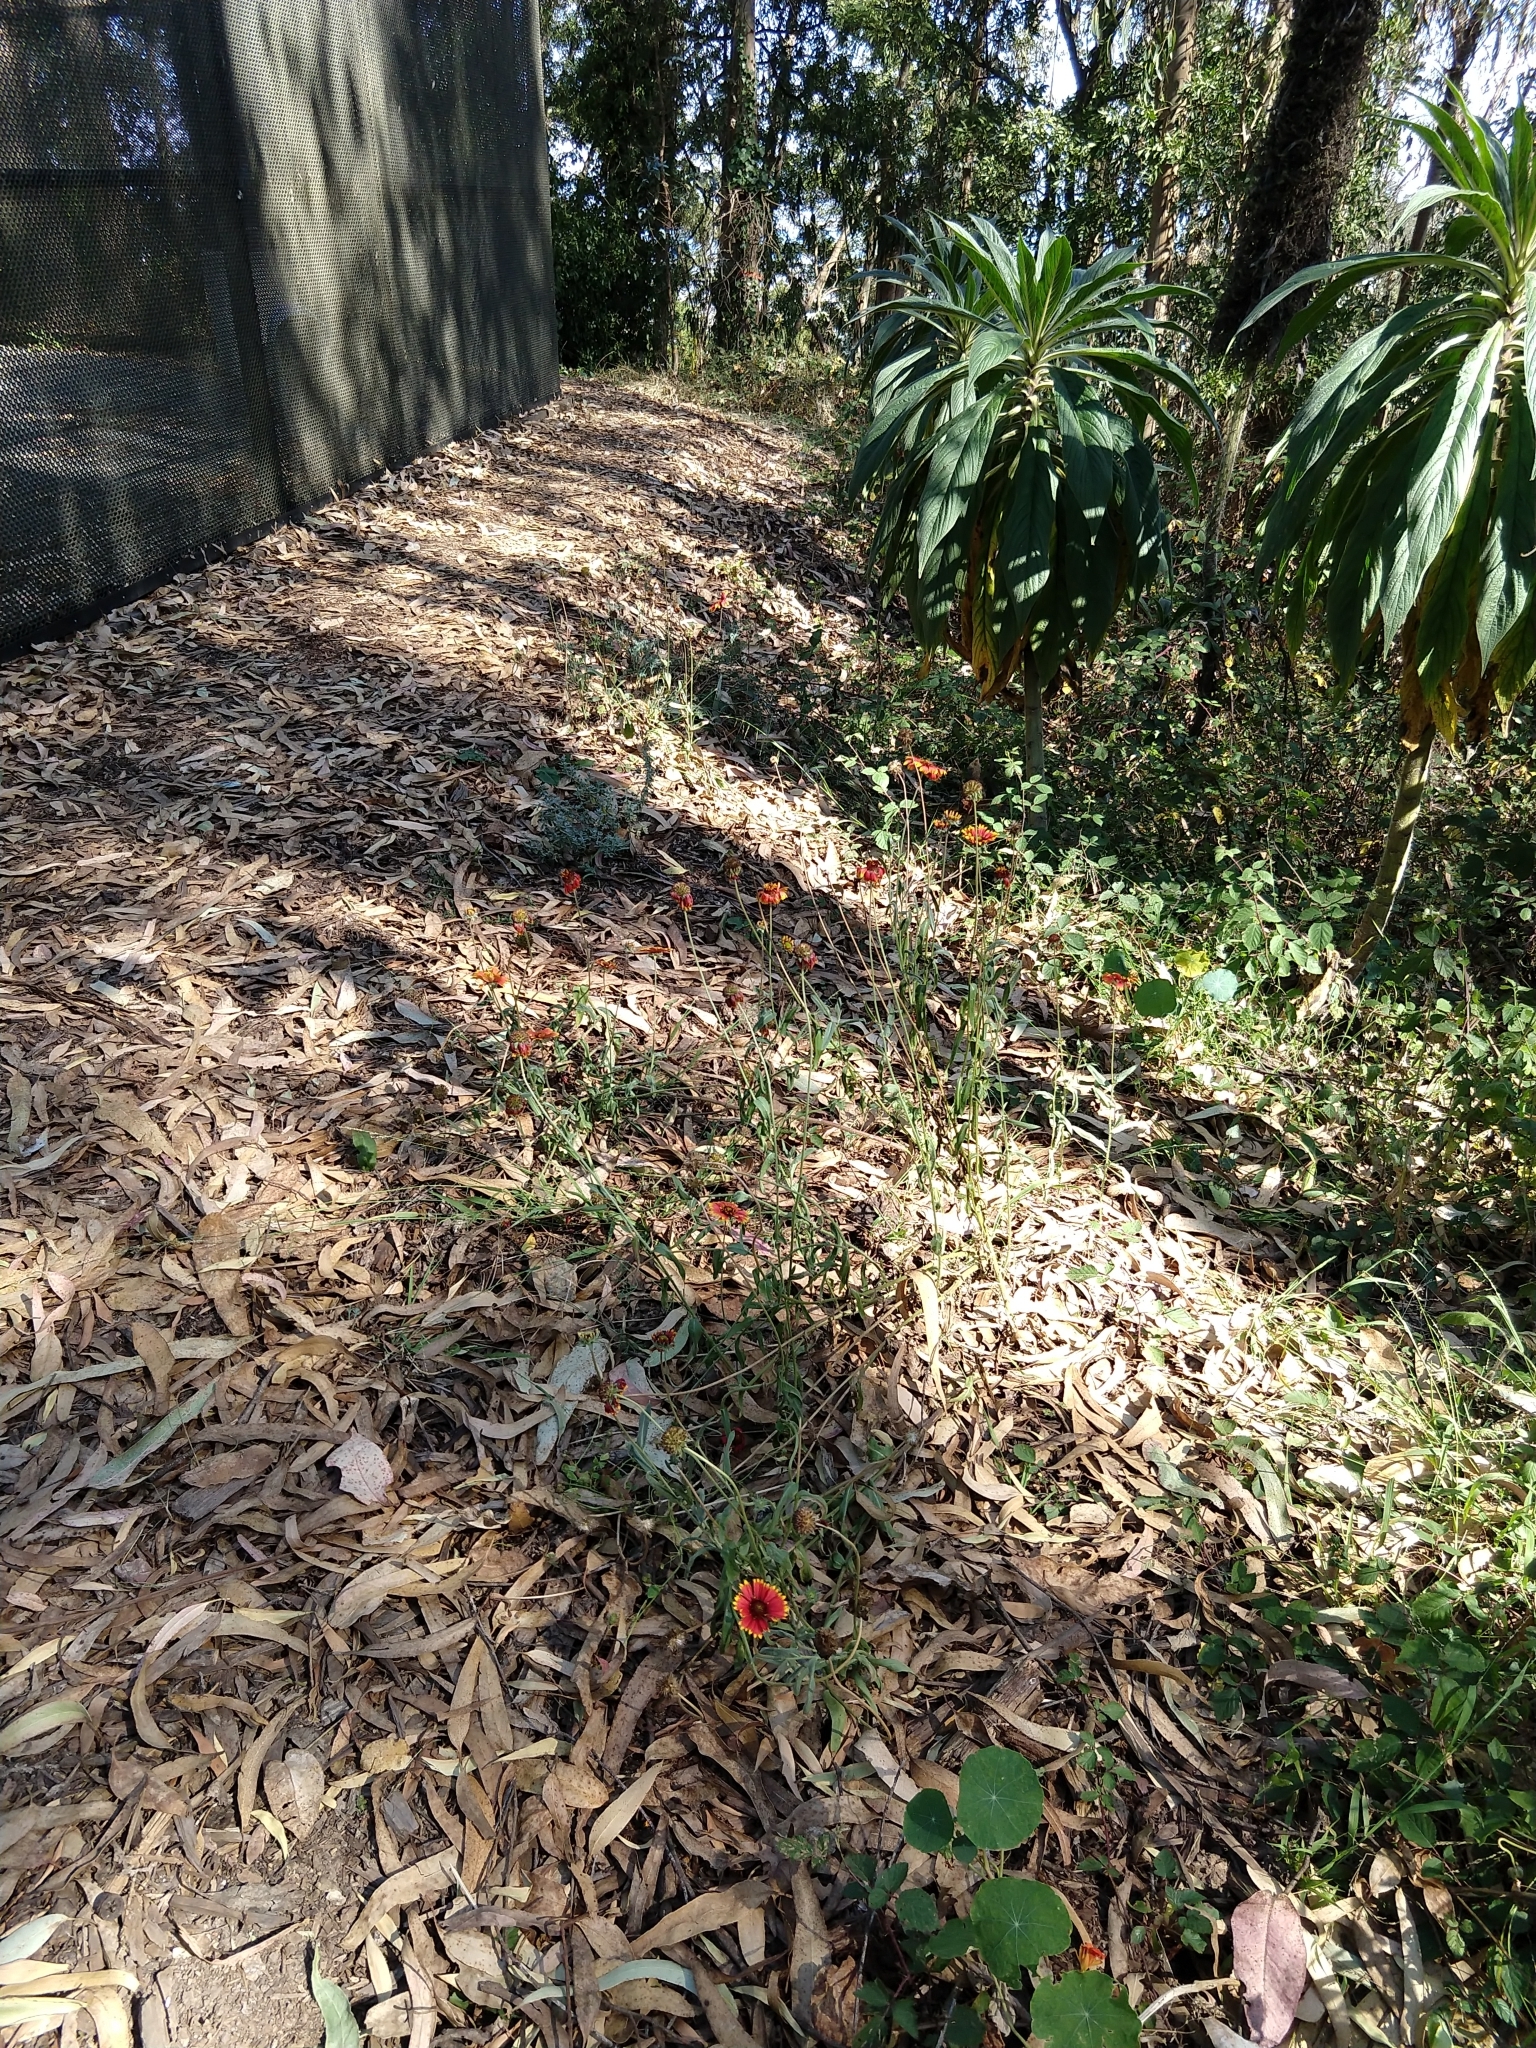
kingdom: Plantae
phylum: Tracheophyta
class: Magnoliopsida
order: Asterales
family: Asteraceae
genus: Gaillardia
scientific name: Gaillardia pulchella
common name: Firewheel
